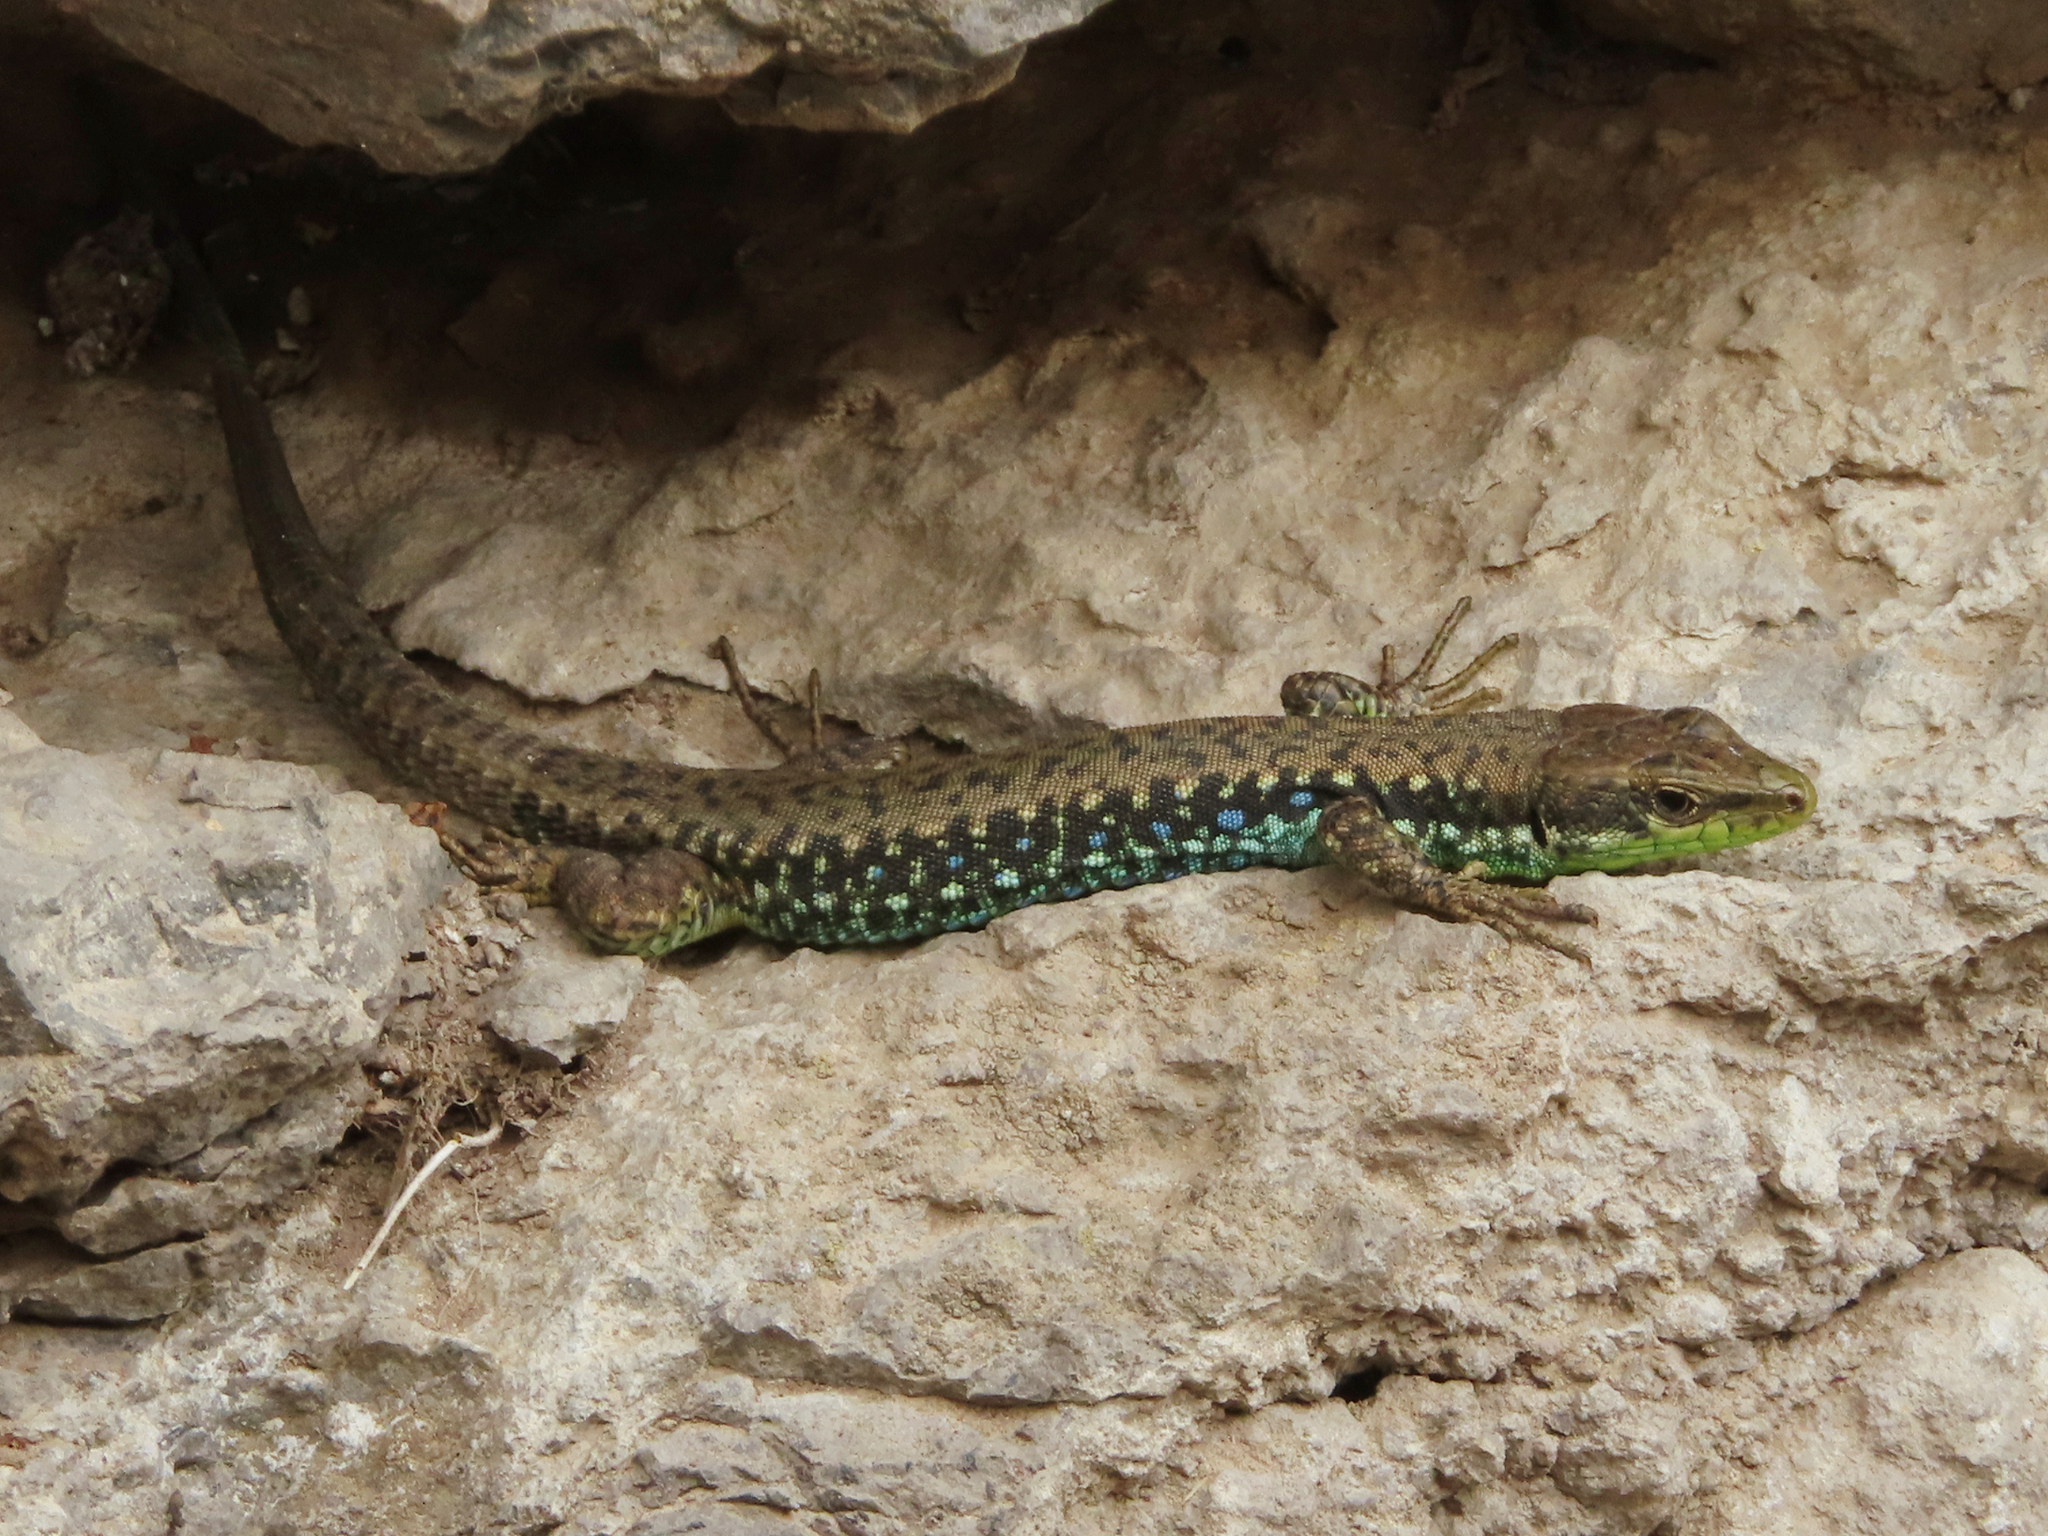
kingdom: Animalia
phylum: Chordata
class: Squamata
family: Lacertidae
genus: Darevskia
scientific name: Darevskia raddei
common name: Radde's lizard
